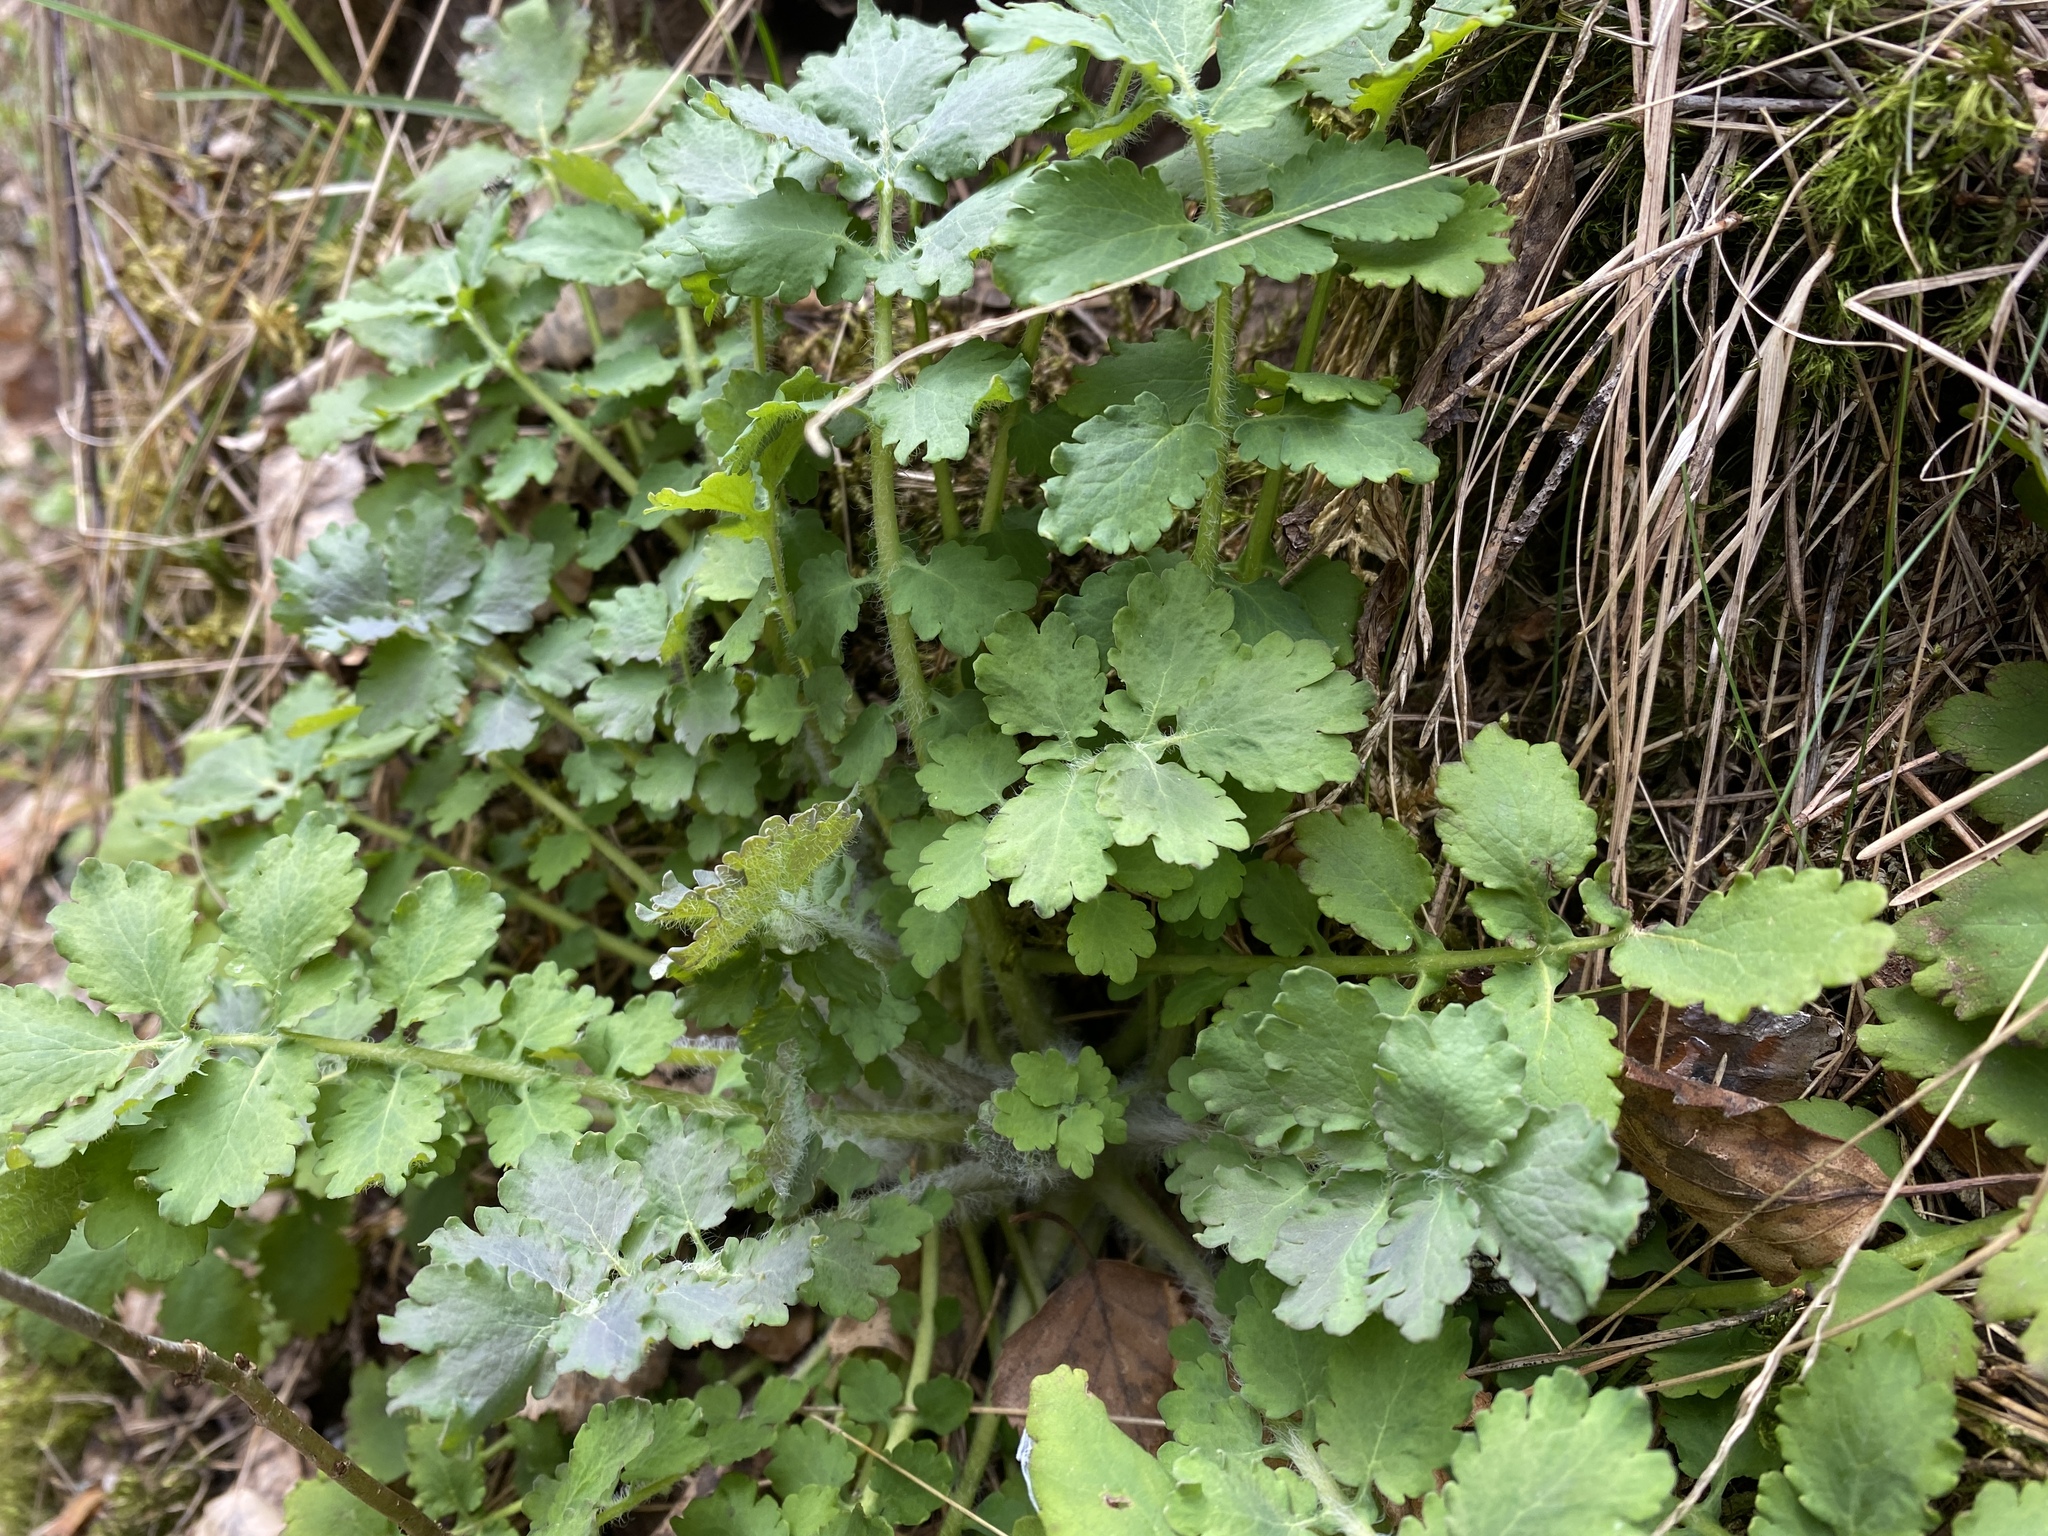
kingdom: Plantae
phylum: Tracheophyta
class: Magnoliopsida
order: Ranunculales
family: Papaveraceae
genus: Chelidonium
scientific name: Chelidonium majus
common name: Greater celandine
